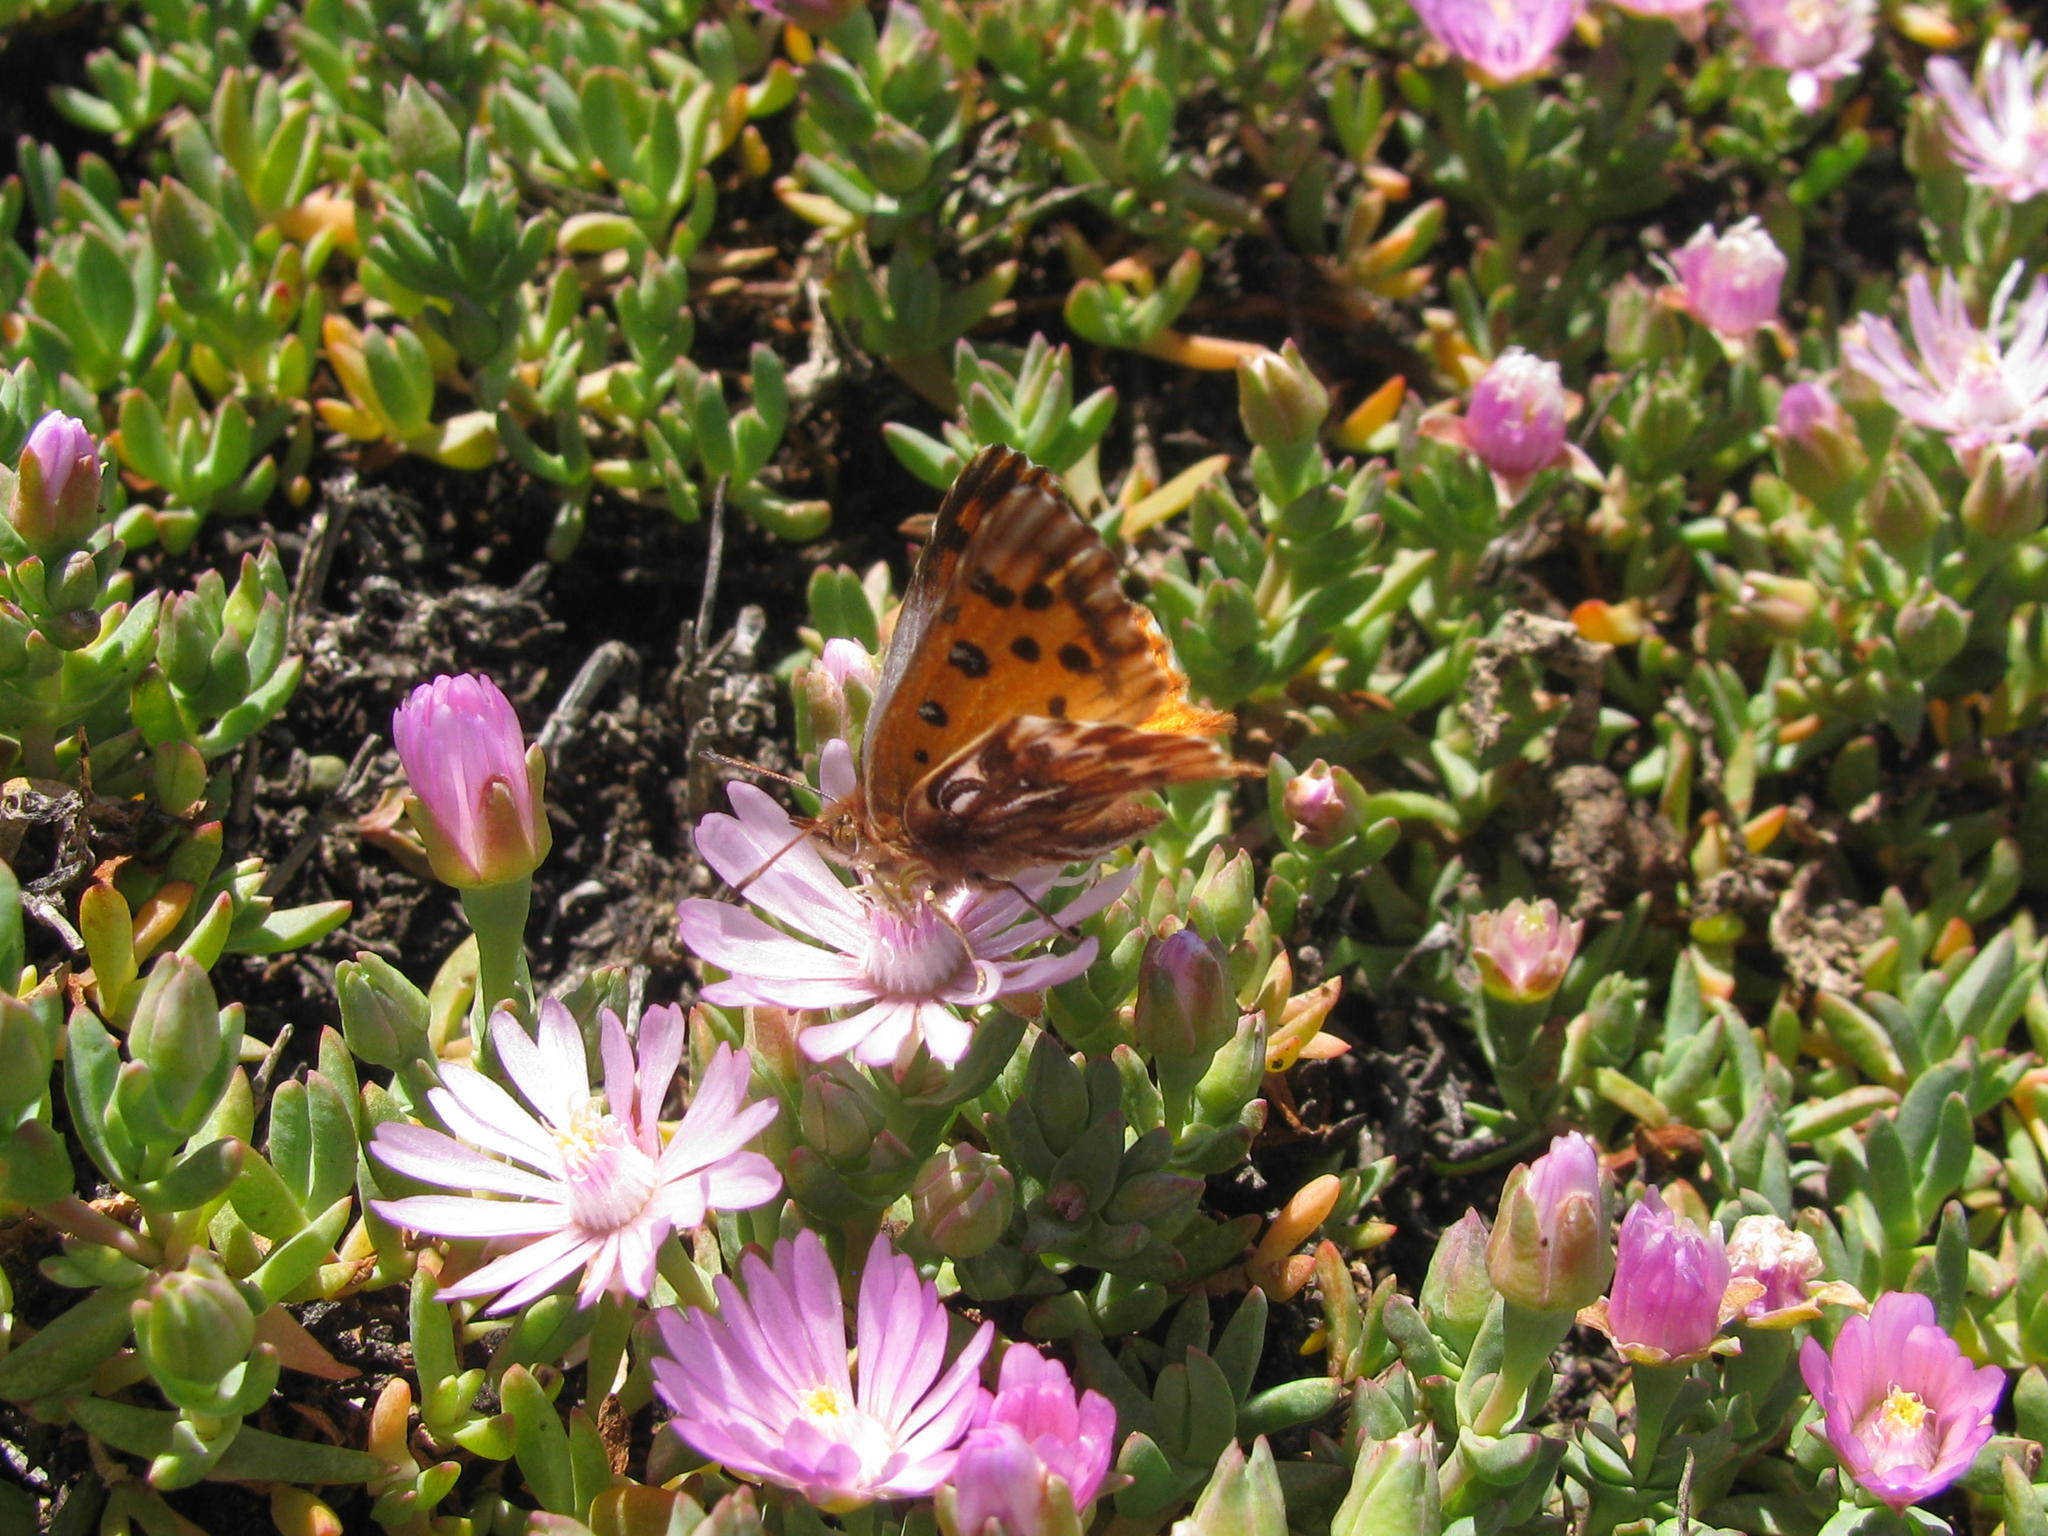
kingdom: Plantae
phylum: Tracheophyta
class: Magnoliopsida
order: Caryophyllales
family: Aizoaceae
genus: Lampranthus
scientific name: Lampranthus debilis
